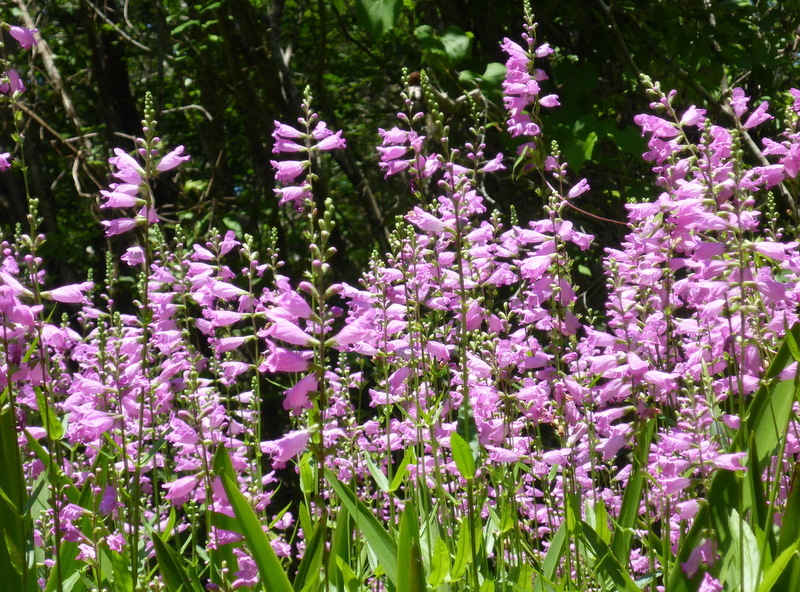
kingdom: Plantae
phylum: Tracheophyta
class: Magnoliopsida
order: Lamiales
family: Lamiaceae
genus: Physostegia
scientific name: Physostegia leptophylla
